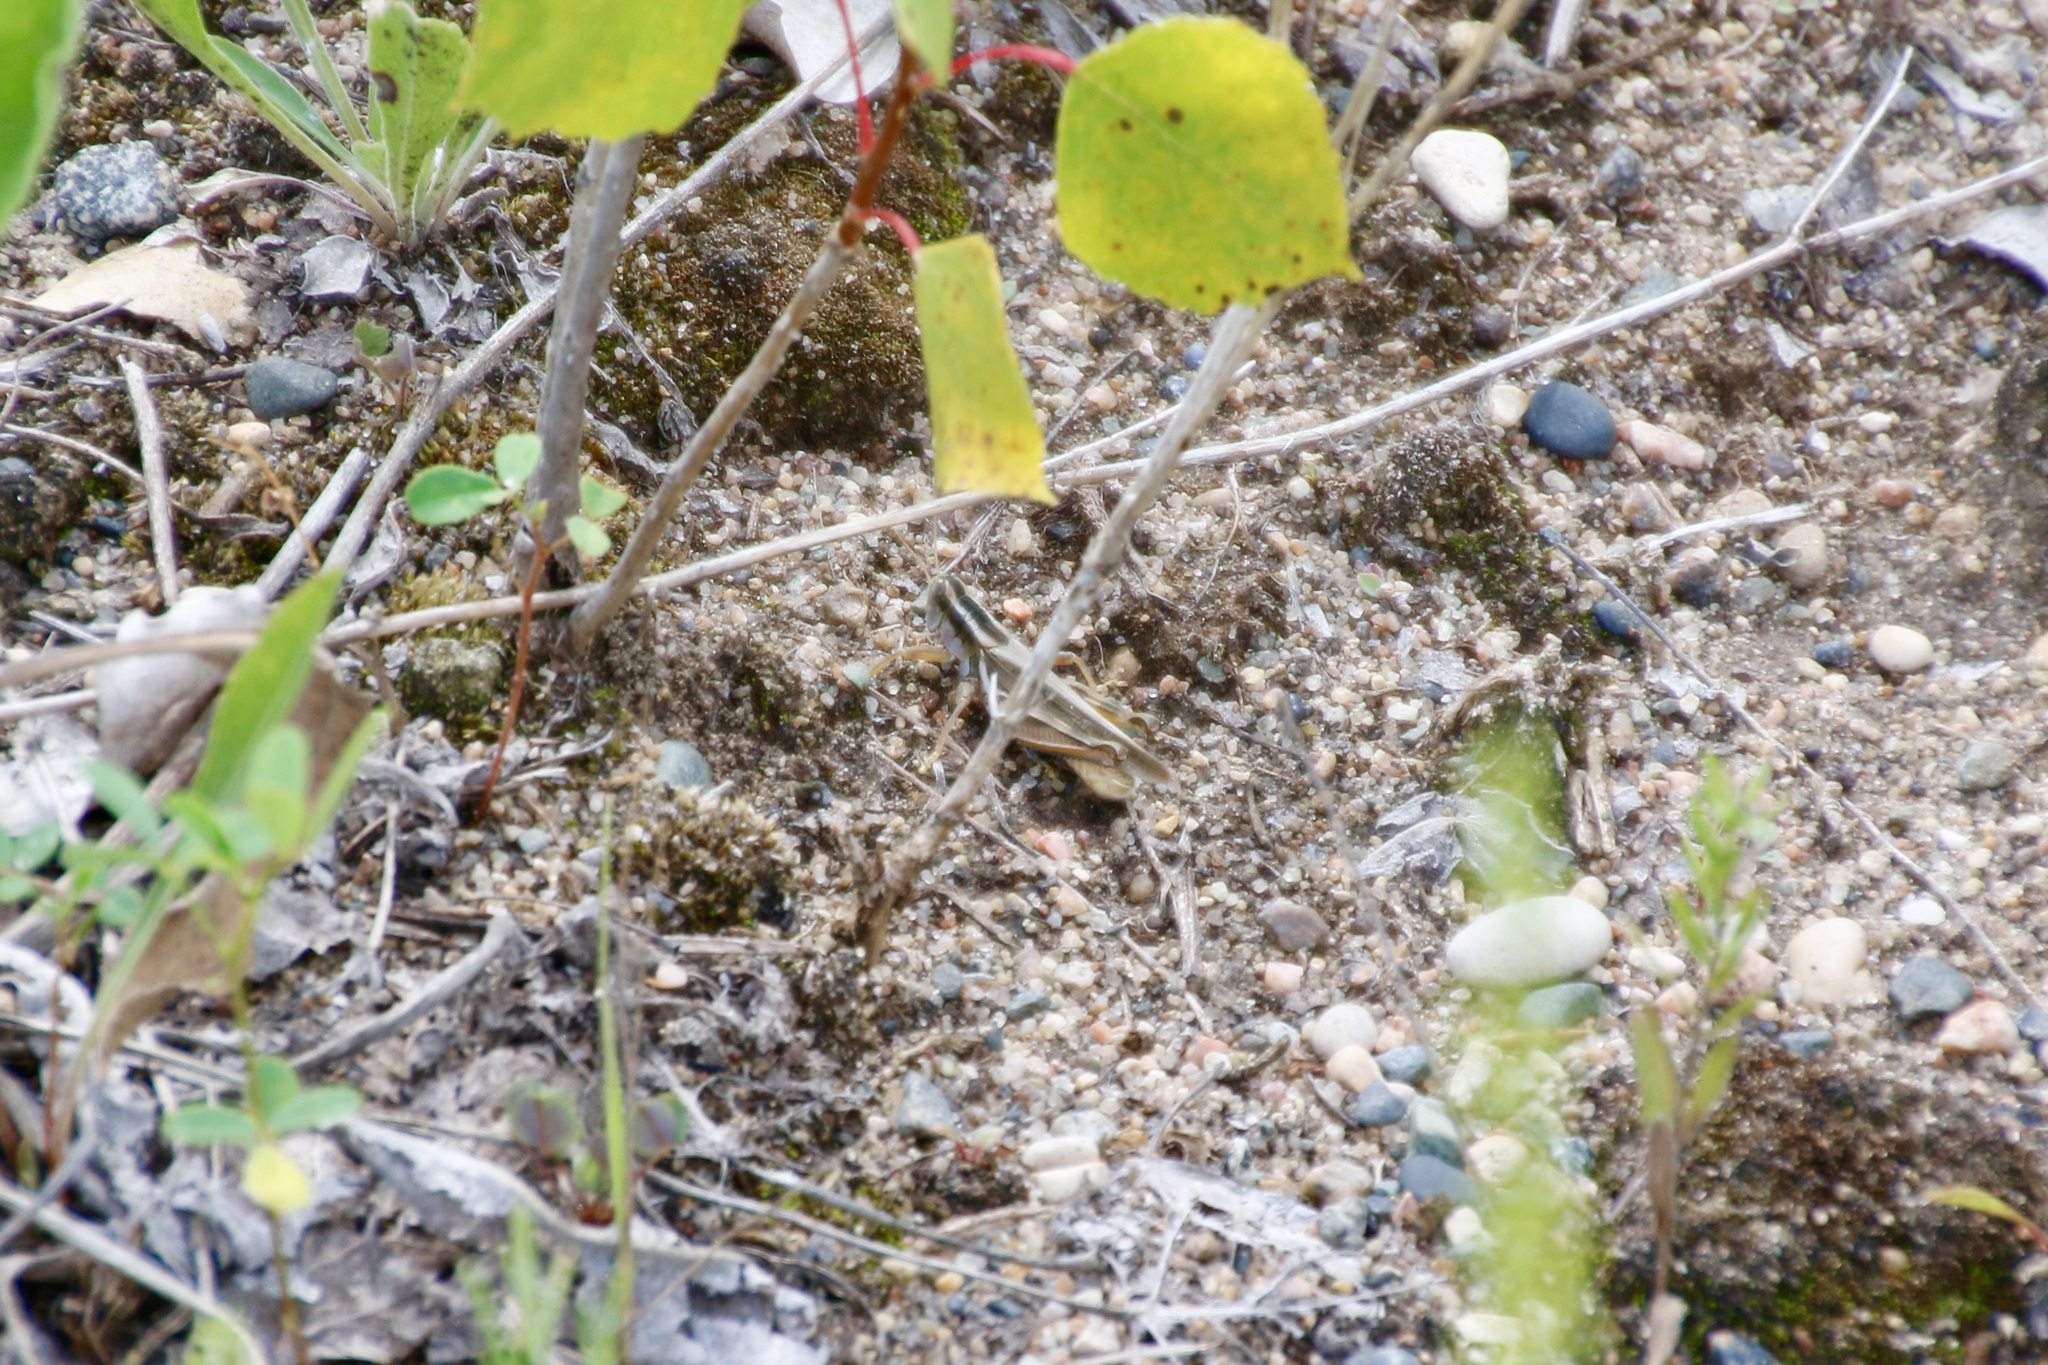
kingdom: Animalia
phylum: Arthropoda
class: Insecta
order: Orthoptera
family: Acrididae
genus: Melanoplus
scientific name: Melanoplus packardii
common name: Packard's grasshopper
